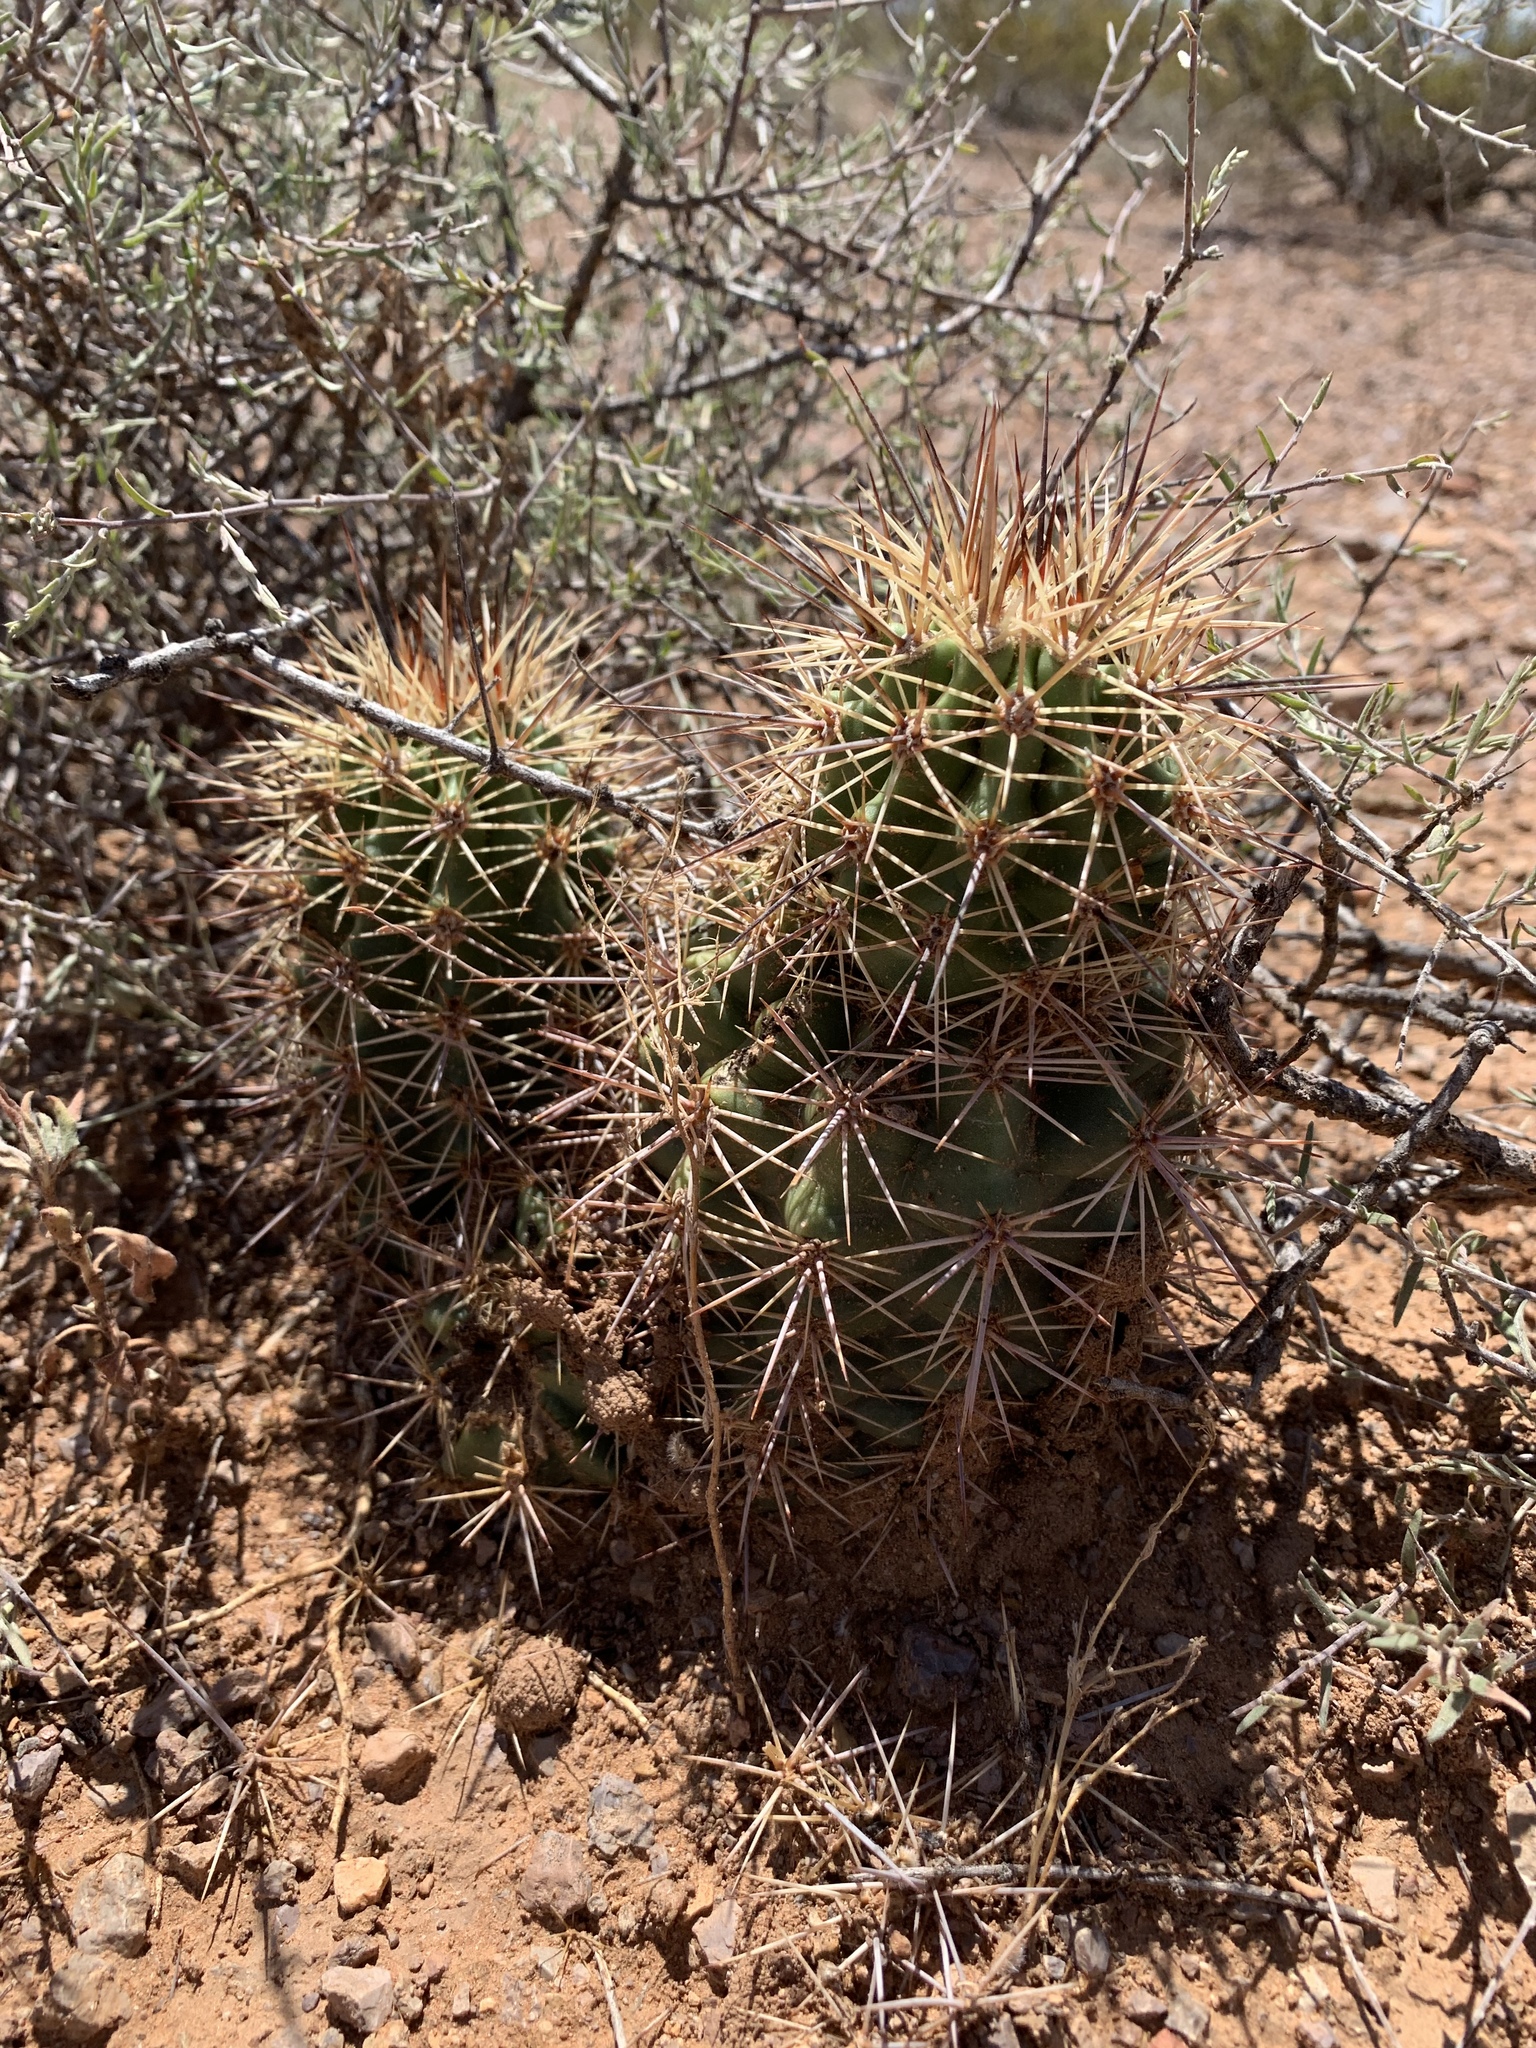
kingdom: Plantae
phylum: Tracheophyta
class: Magnoliopsida
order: Caryophyllales
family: Cactaceae
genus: Echinocereus
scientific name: Echinocereus coccineus
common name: Scarlet hedgehog cactus
